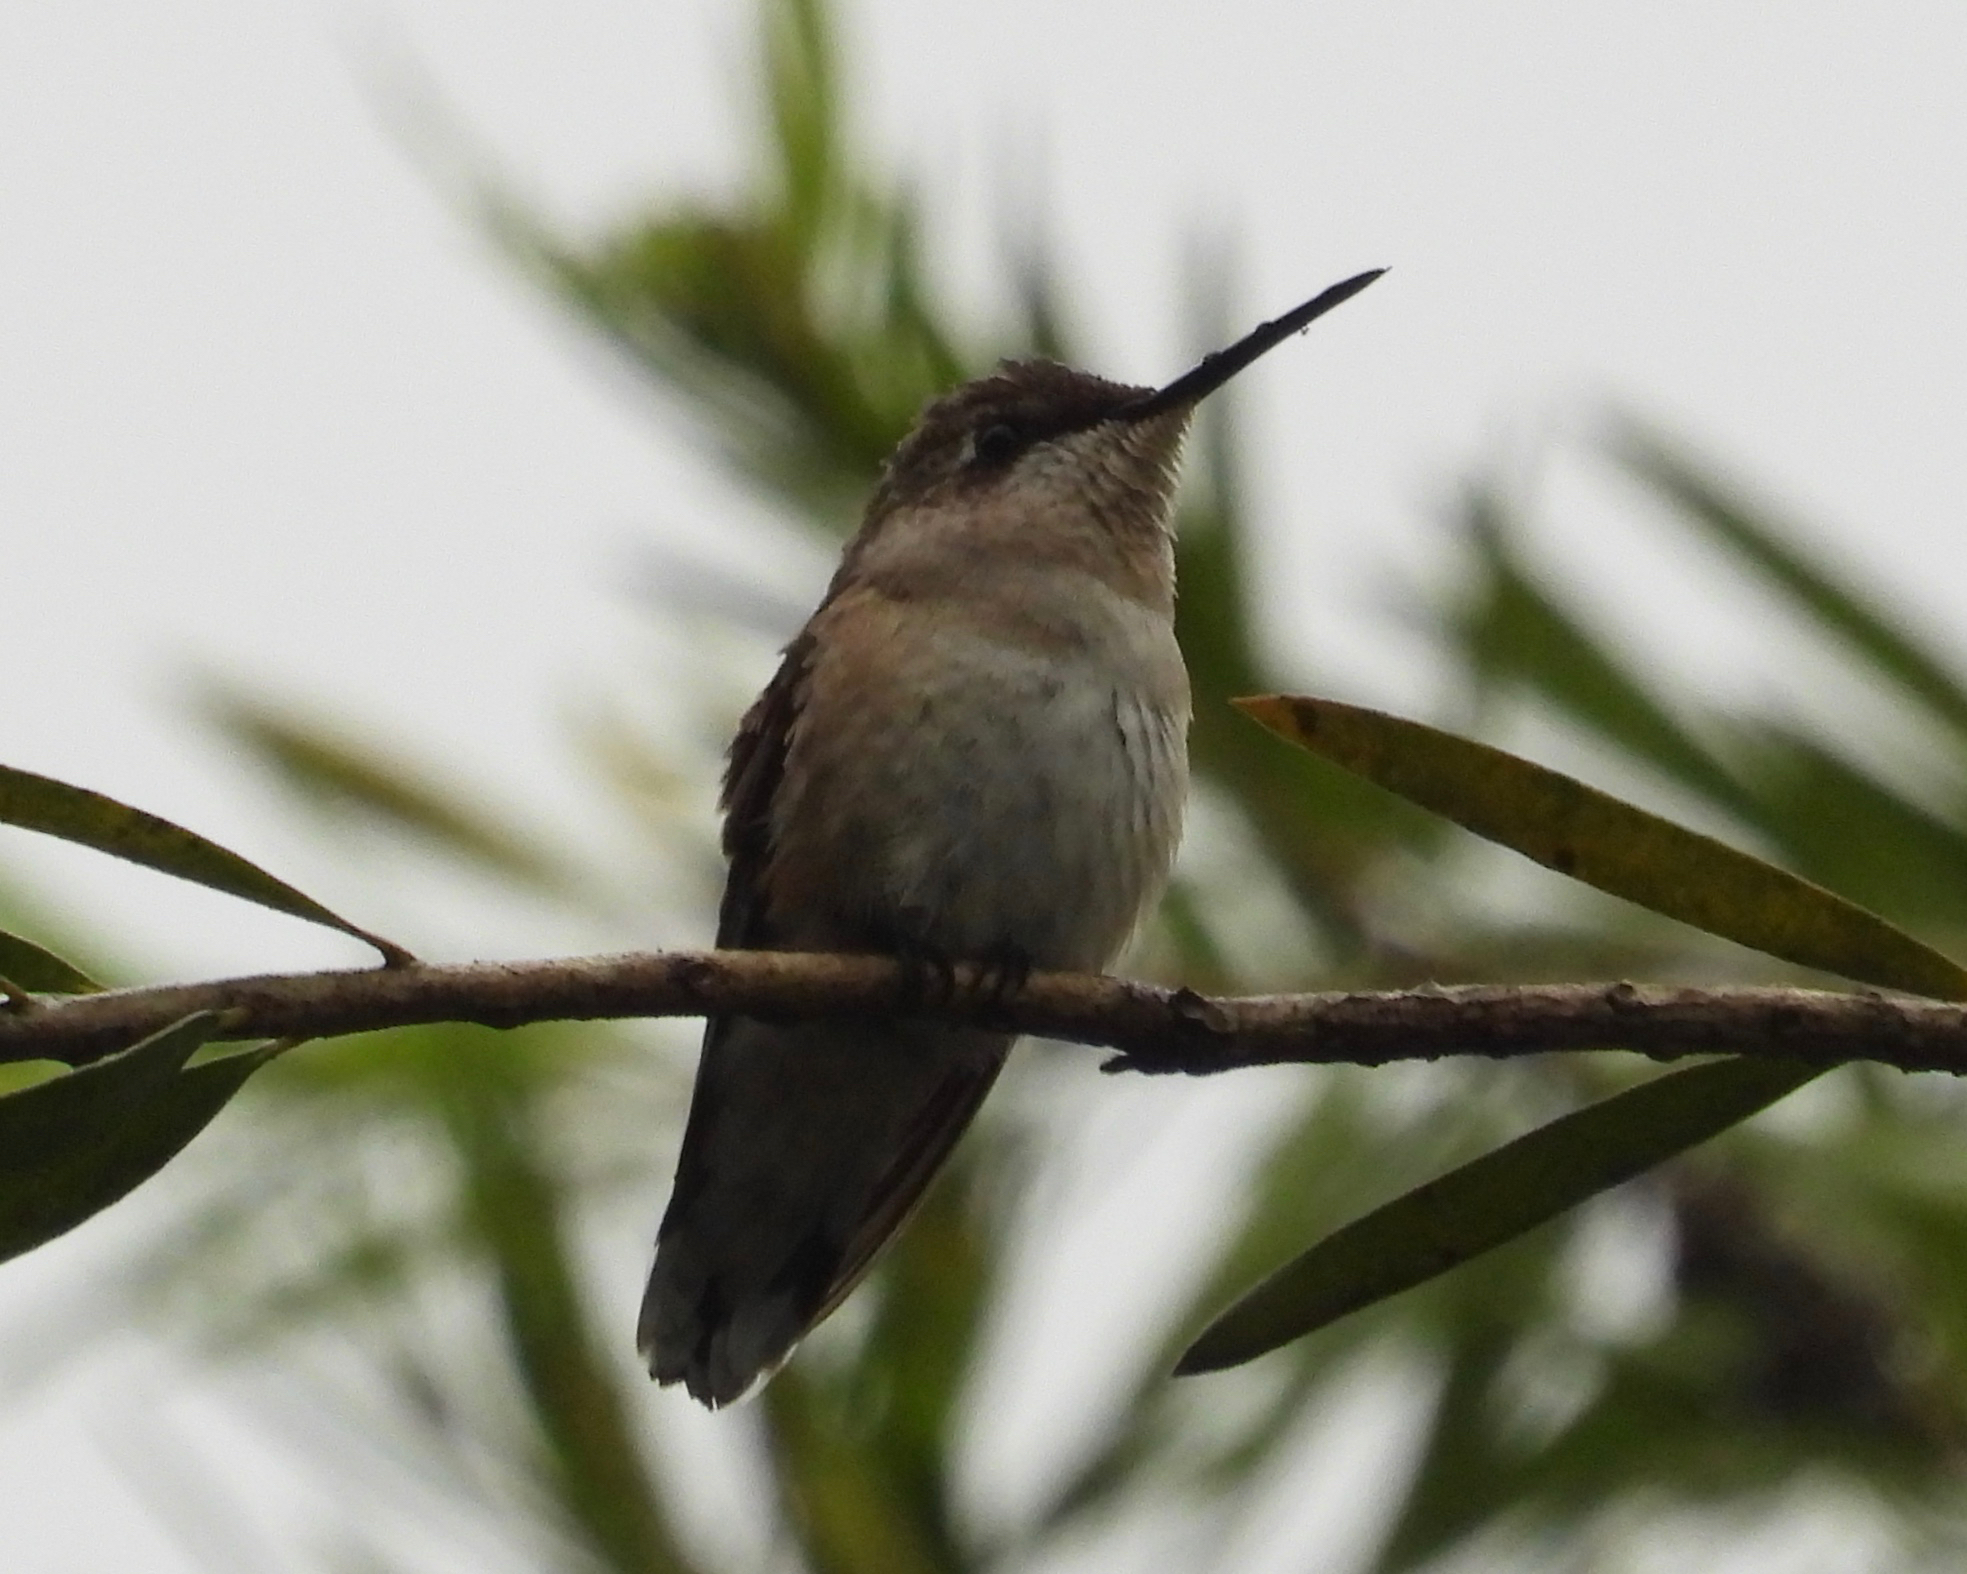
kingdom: Animalia
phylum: Chordata
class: Aves
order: Apodiformes
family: Trochilidae
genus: Archilochus
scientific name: Archilochus colubris
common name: Ruby-throated hummingbird
